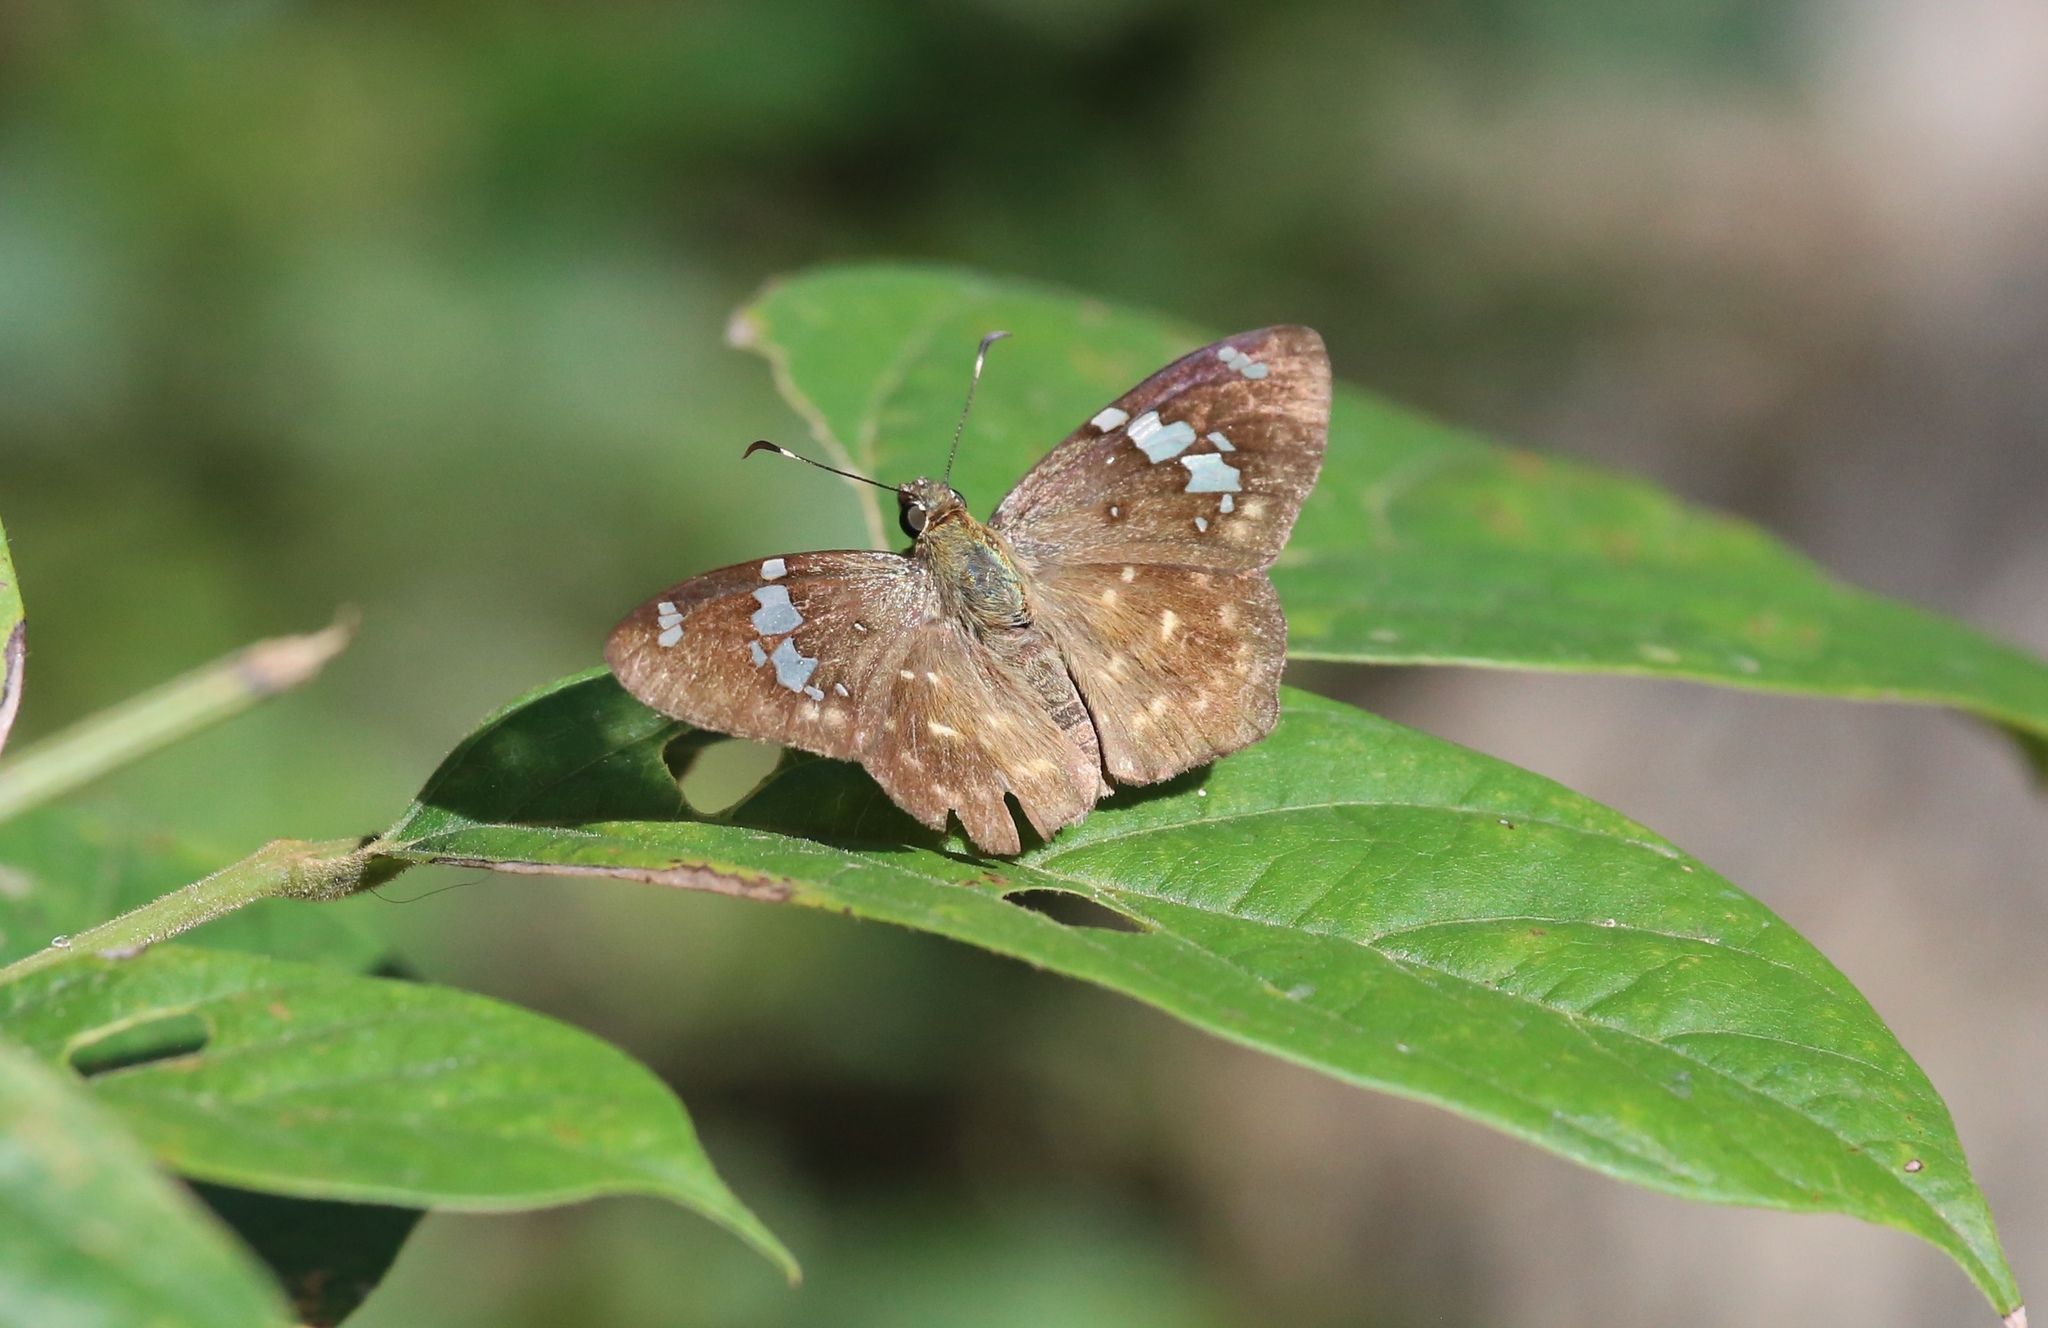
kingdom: Animalia
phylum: Arthropoda
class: Insecta
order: Lepidoptera
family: Hesperiidae
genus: Celaenorrhinus
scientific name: Celaenorrhinus similis
